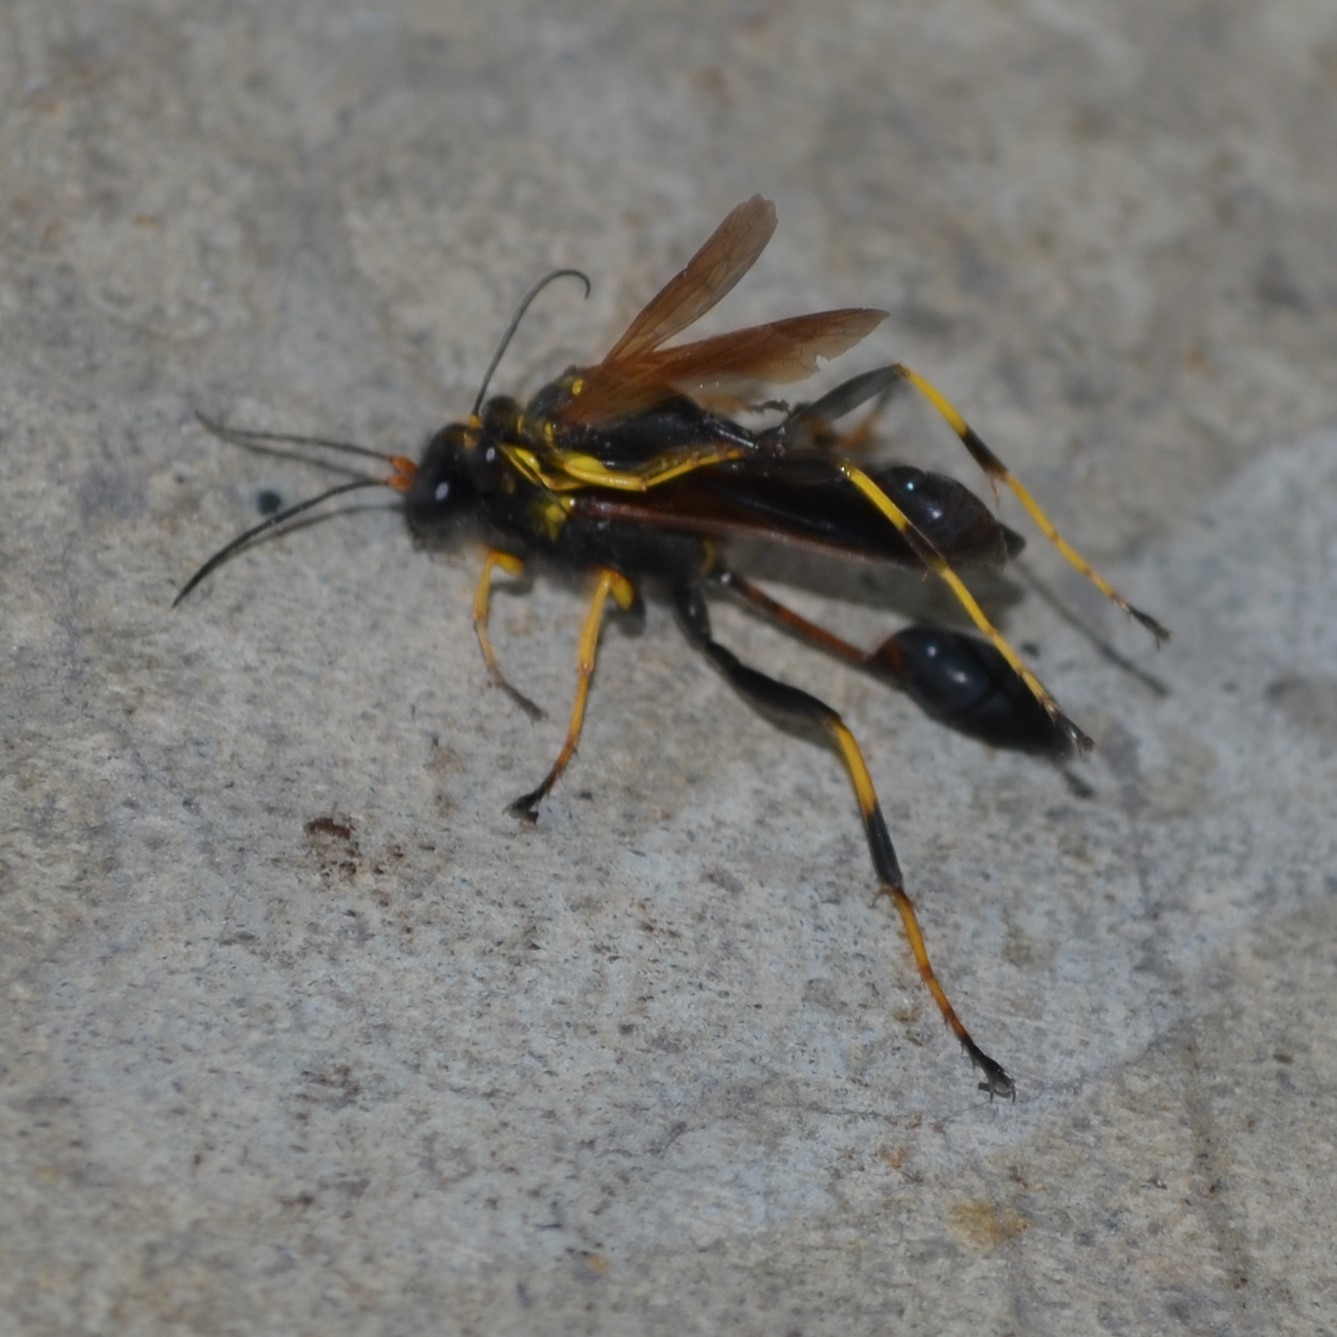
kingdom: Animalia
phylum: Arthropoda
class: Insecta
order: Hymenoptera
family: Sphecidae
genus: Sceliphron
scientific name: Sceliphron caementarium
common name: Mud dauber
